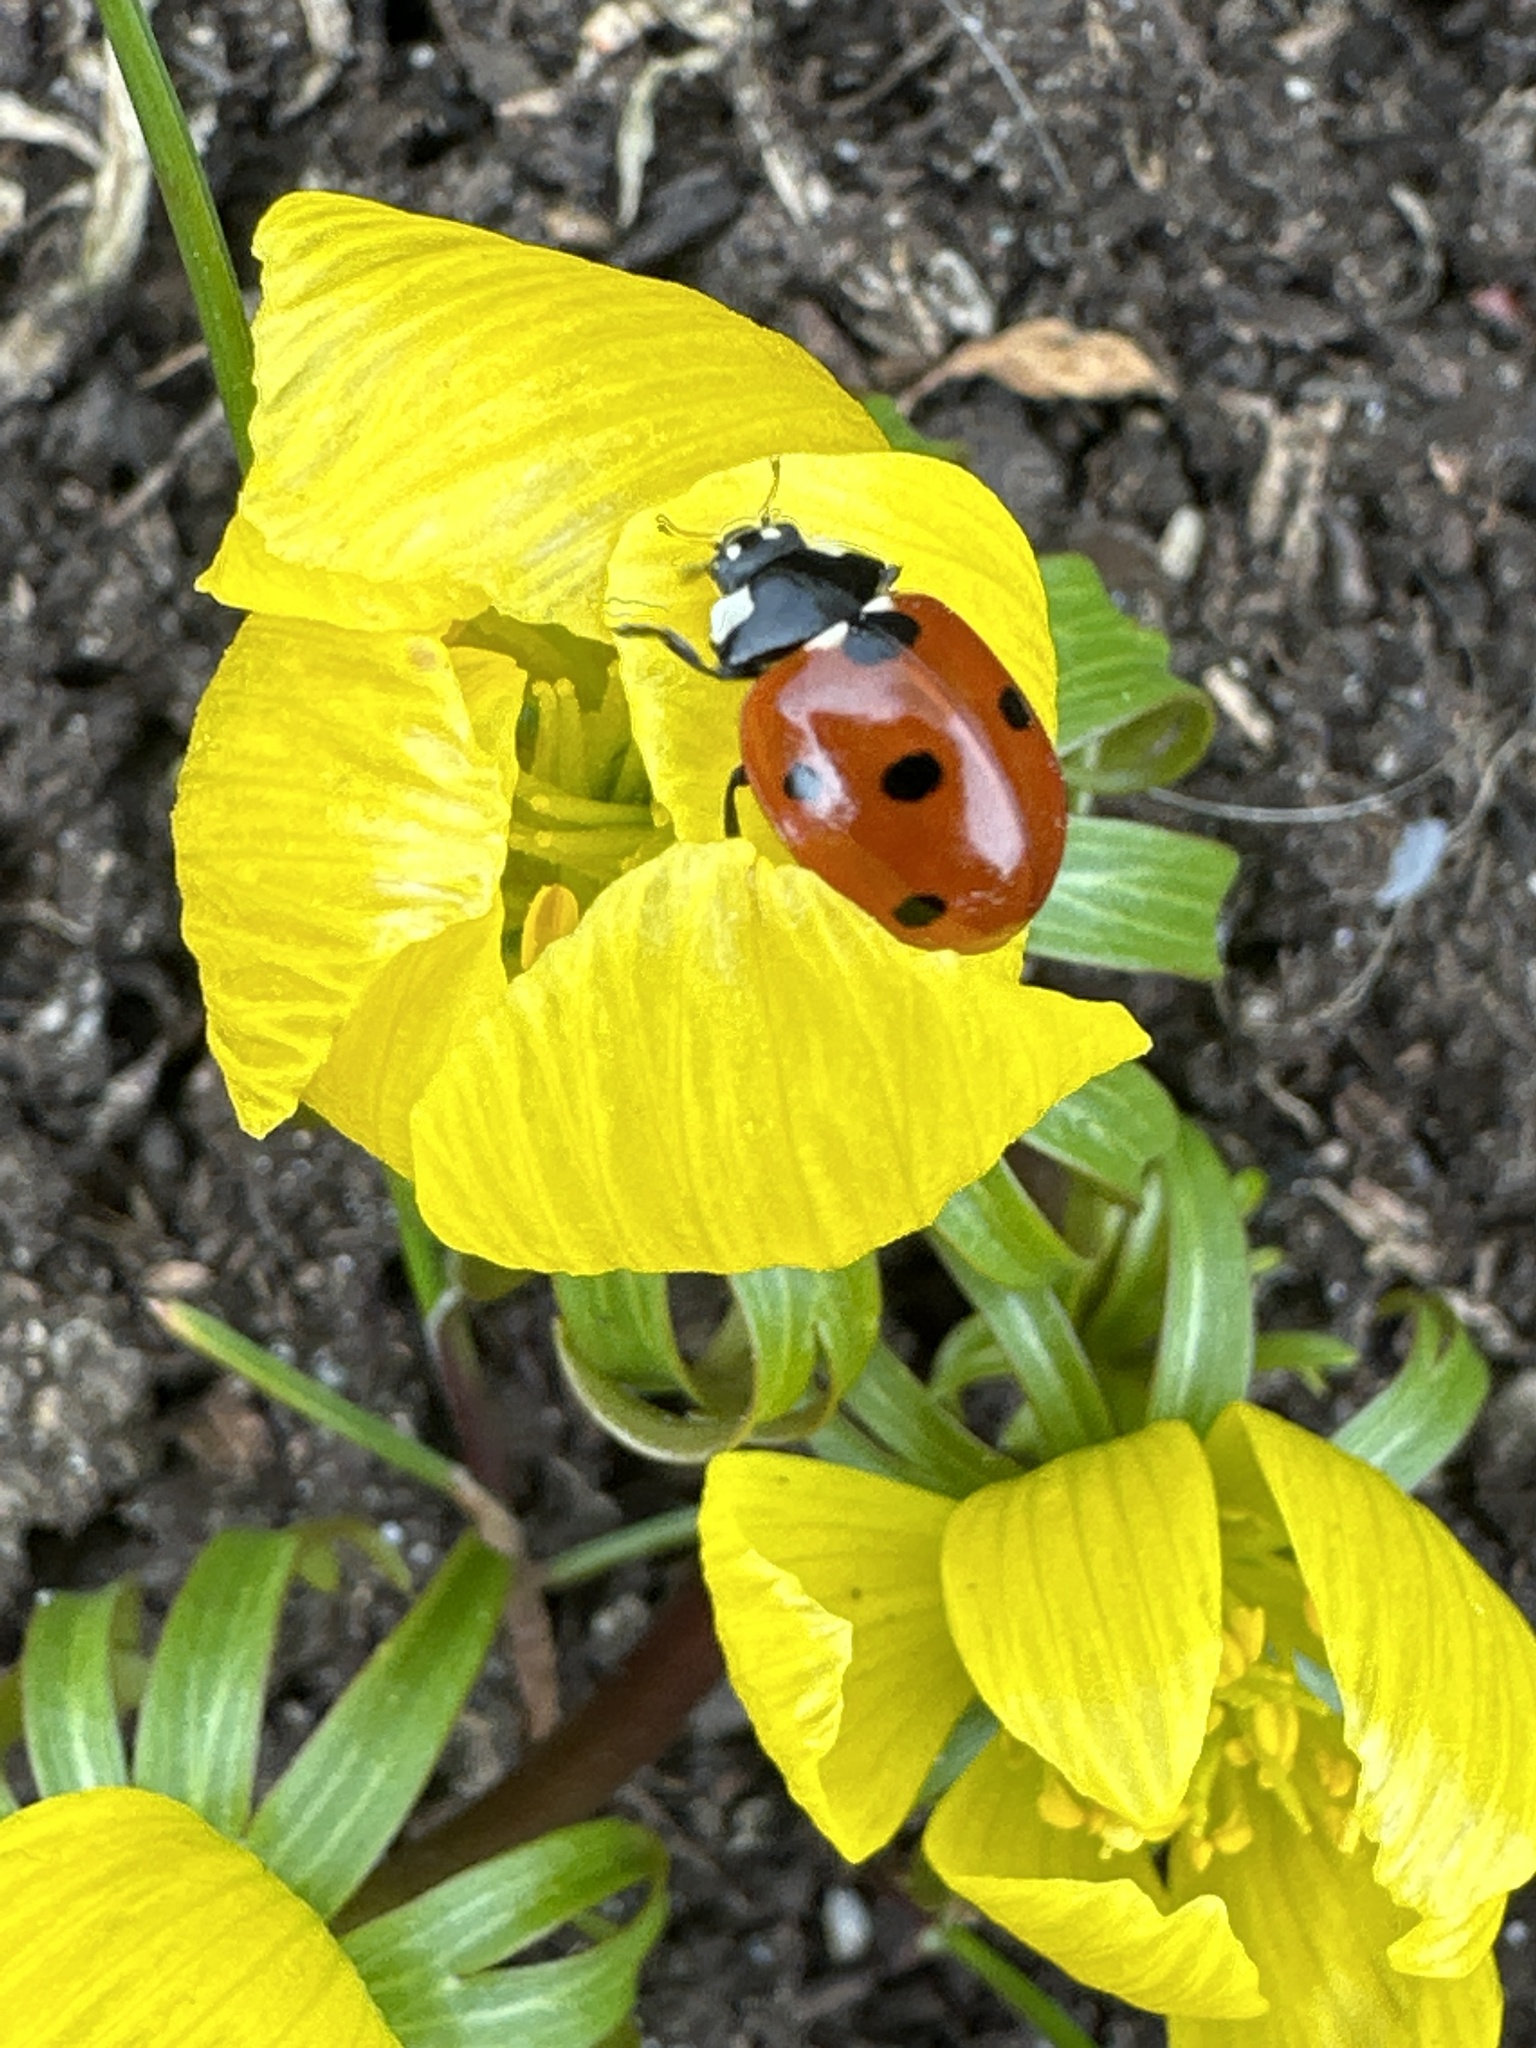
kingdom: Animalia
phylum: Arthropoda
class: Insecta
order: Coleoptera
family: Coccinellidae
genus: Coccinella
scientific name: Coccinella septempunctata
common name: Sevenspotted lady beetle
